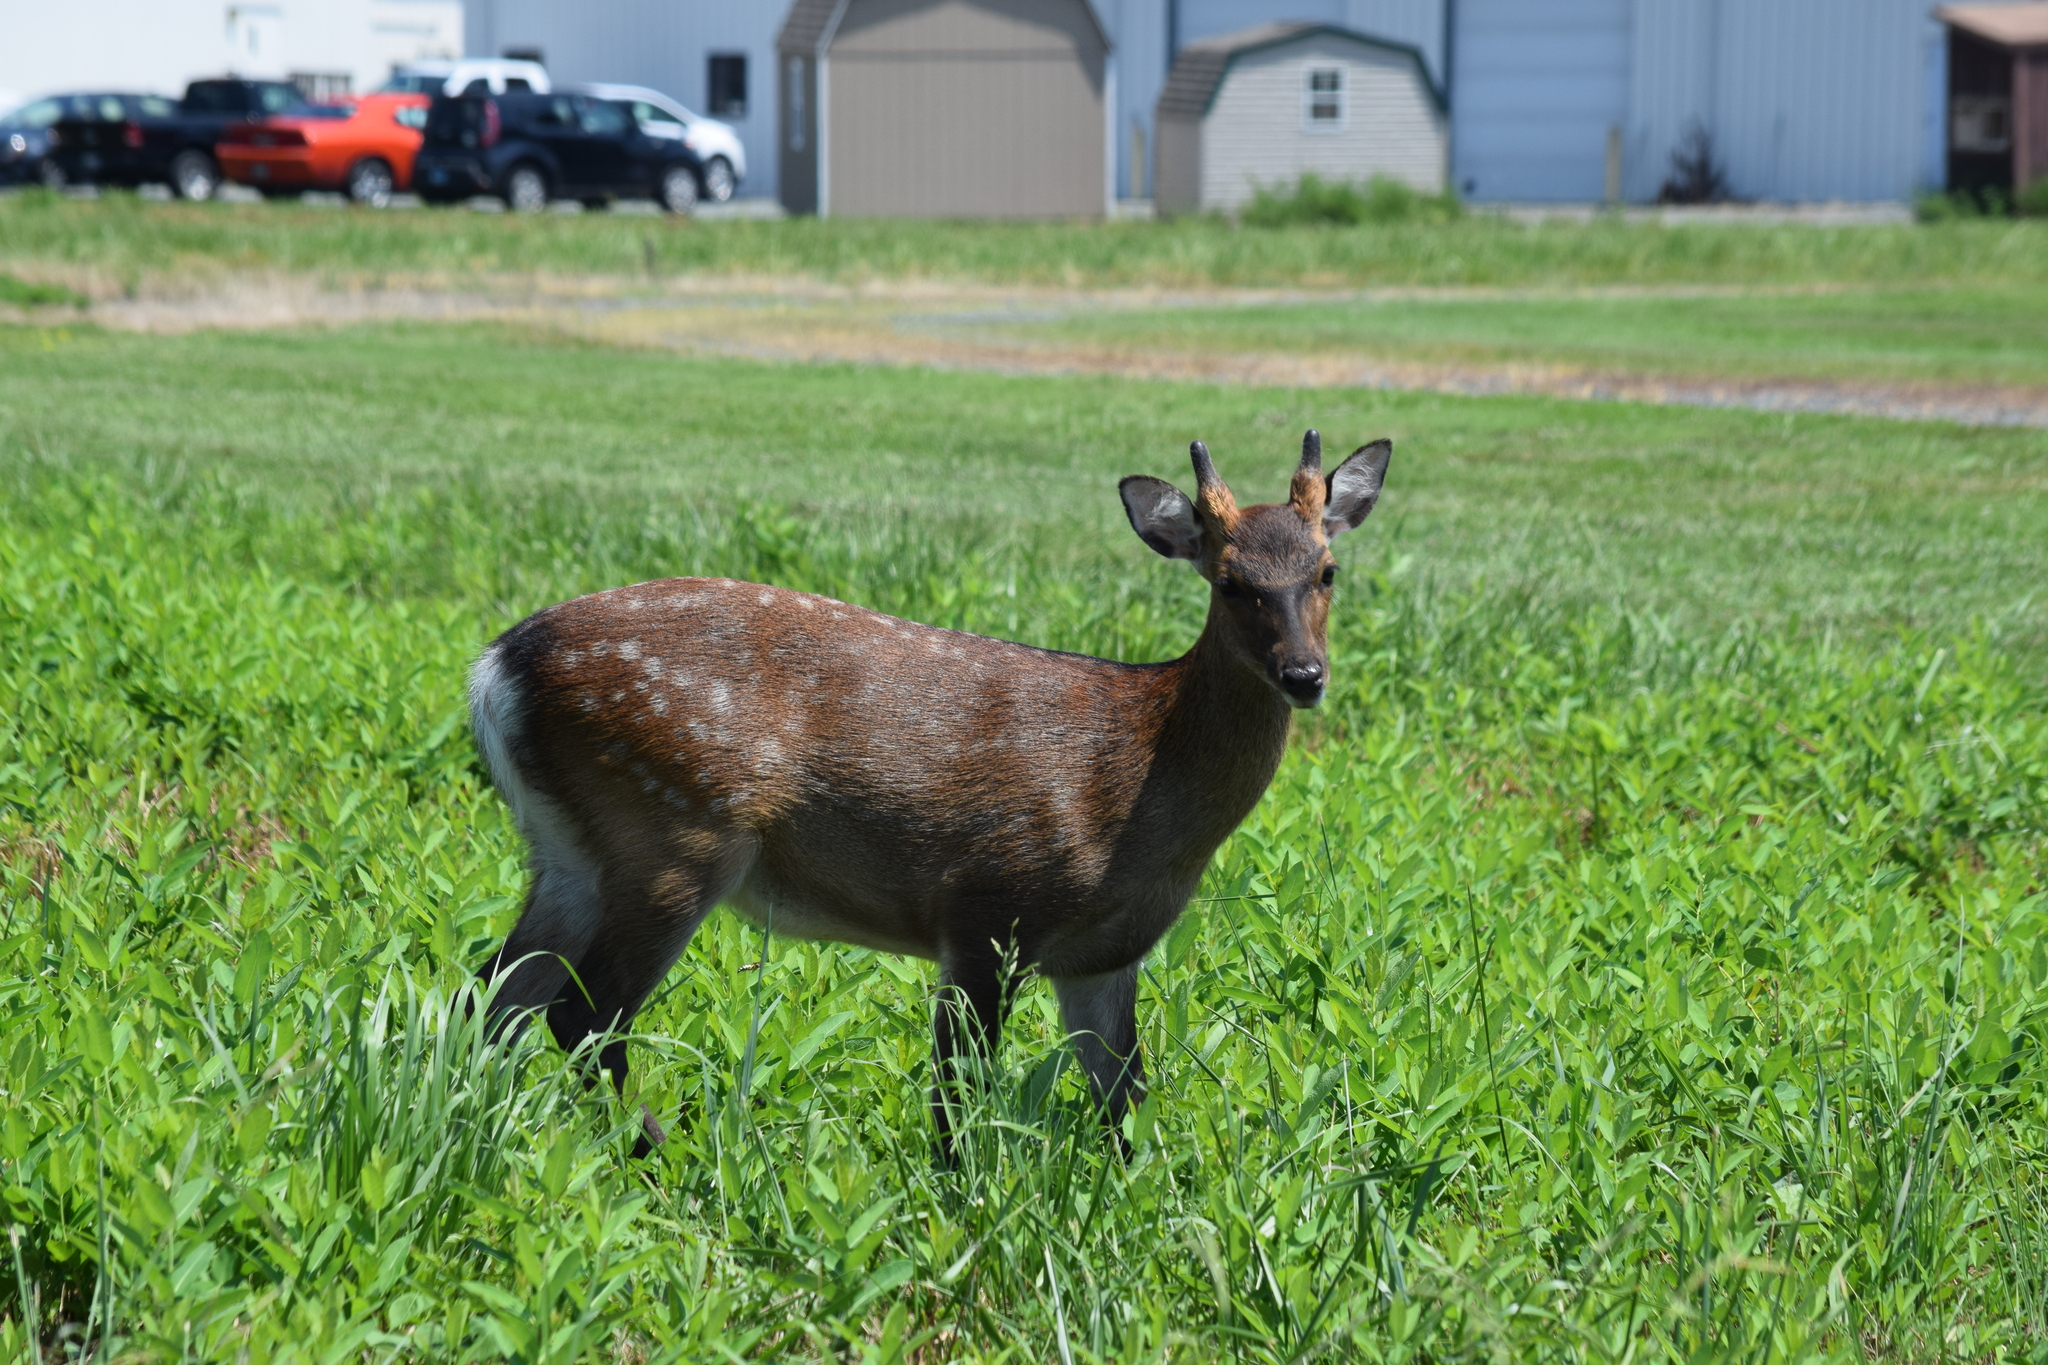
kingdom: Animalia
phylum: Chordata
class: Mammalia
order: Artiodactyla
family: Cervidae
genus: Cervus
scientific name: Cervus nippon
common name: Sika deer
